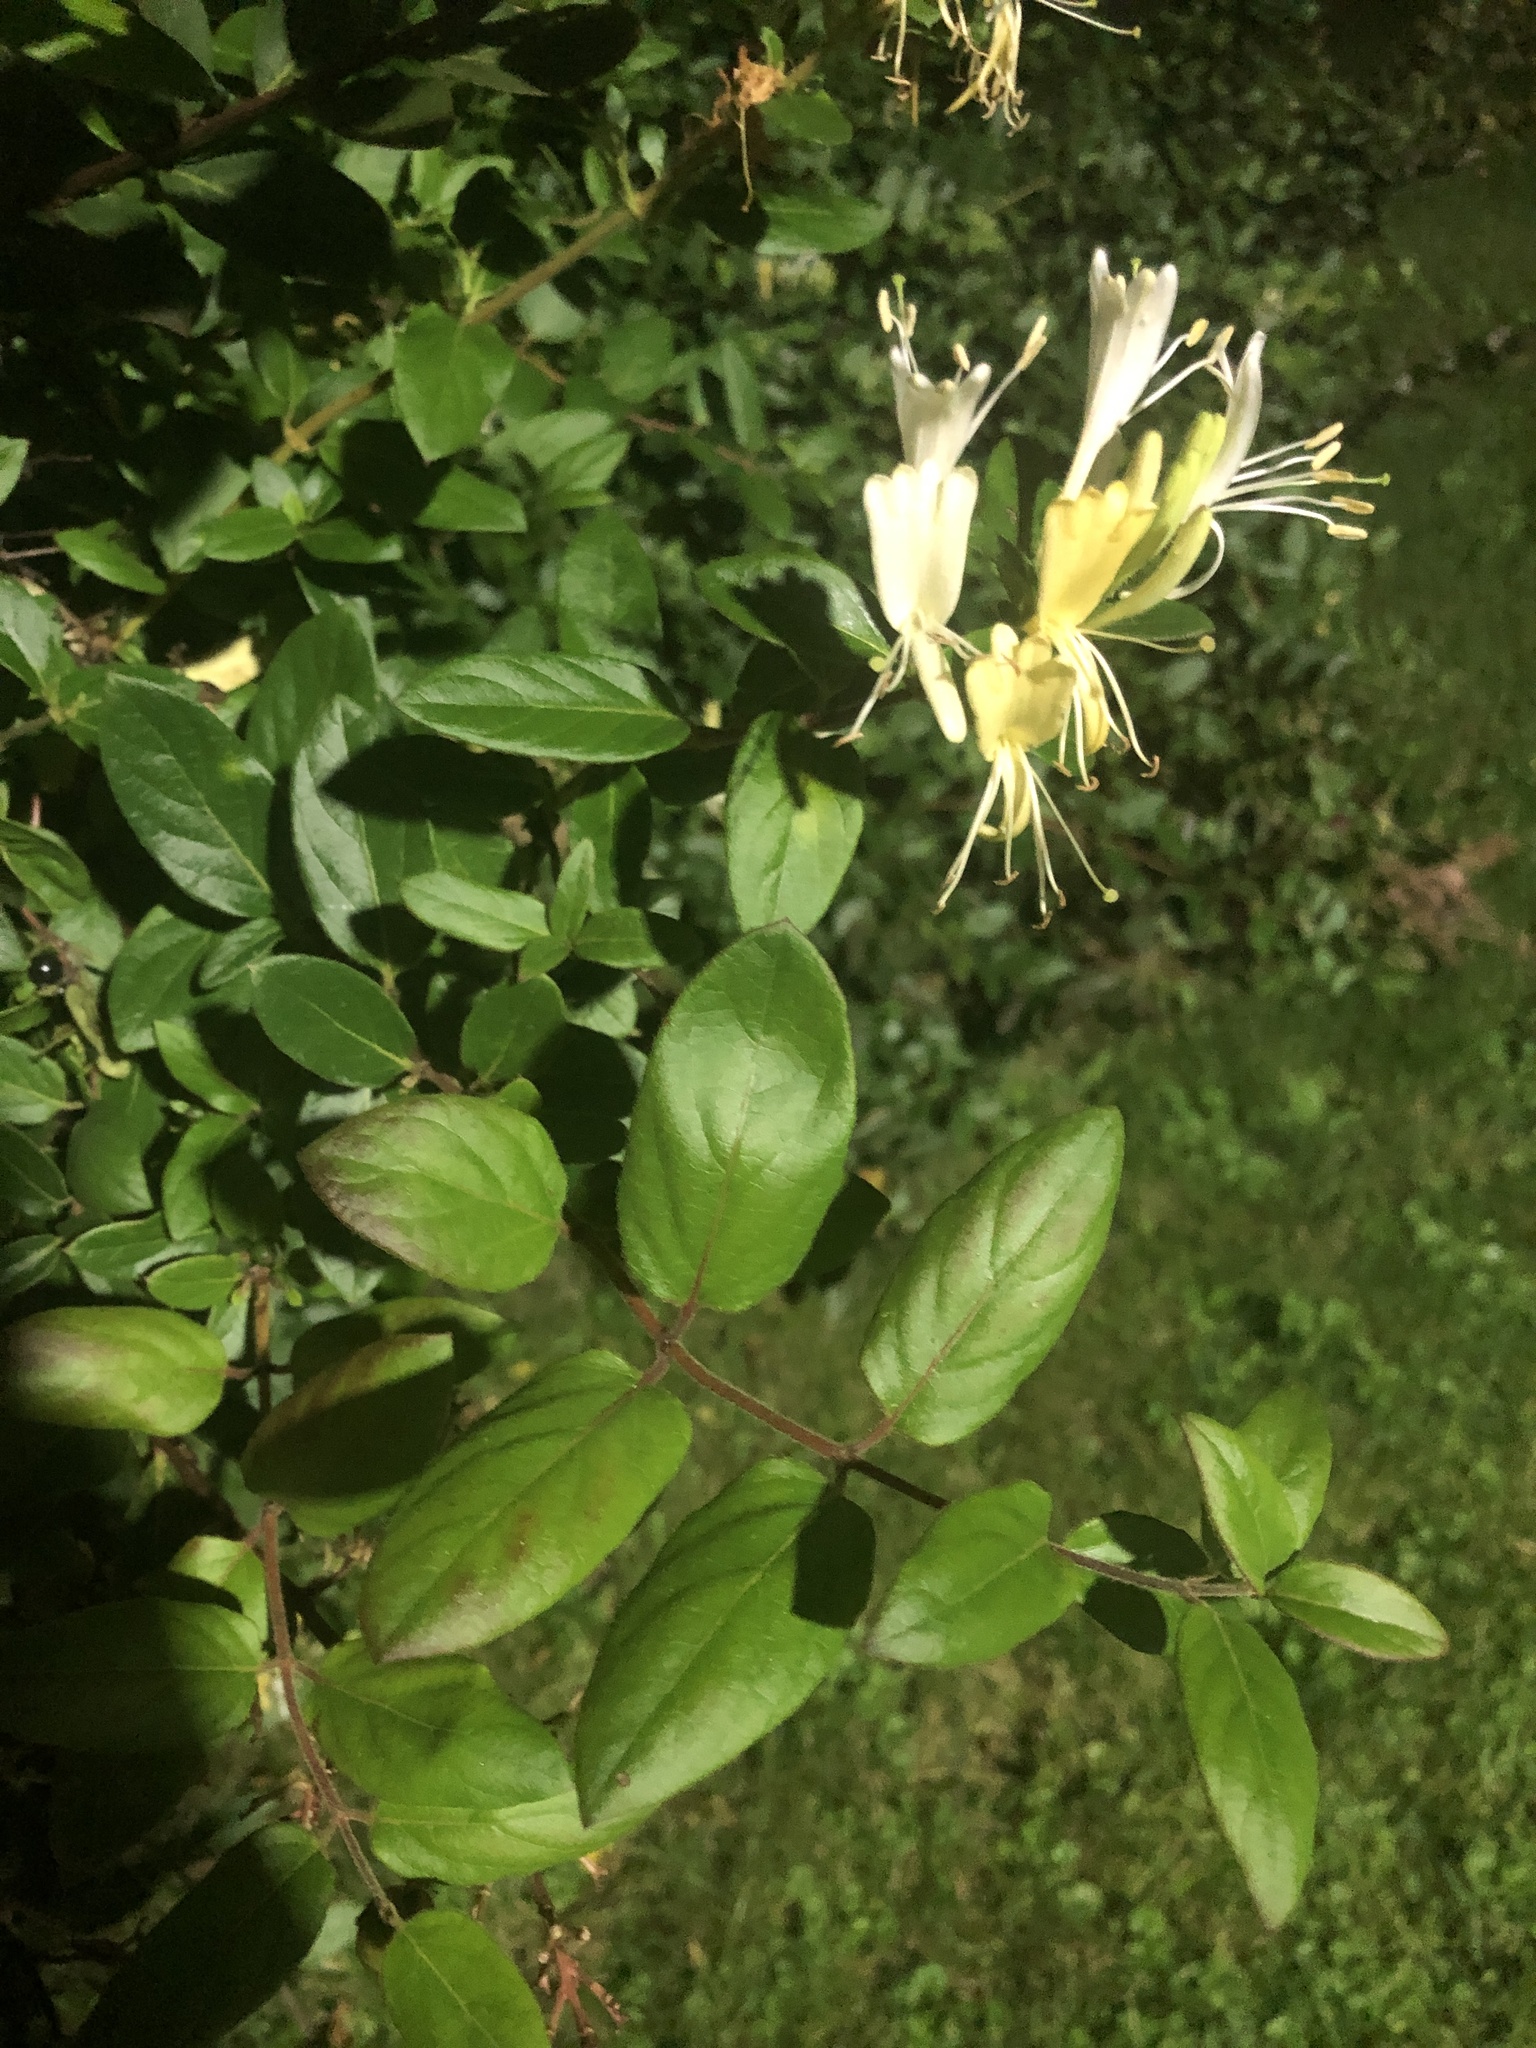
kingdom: Plantae
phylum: Tracheophyta
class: Magnoliopsida
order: Dipsacales
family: Caprifoliaceae
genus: Lonicera
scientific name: Lonicera japonica
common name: Japanese honeysuckle
